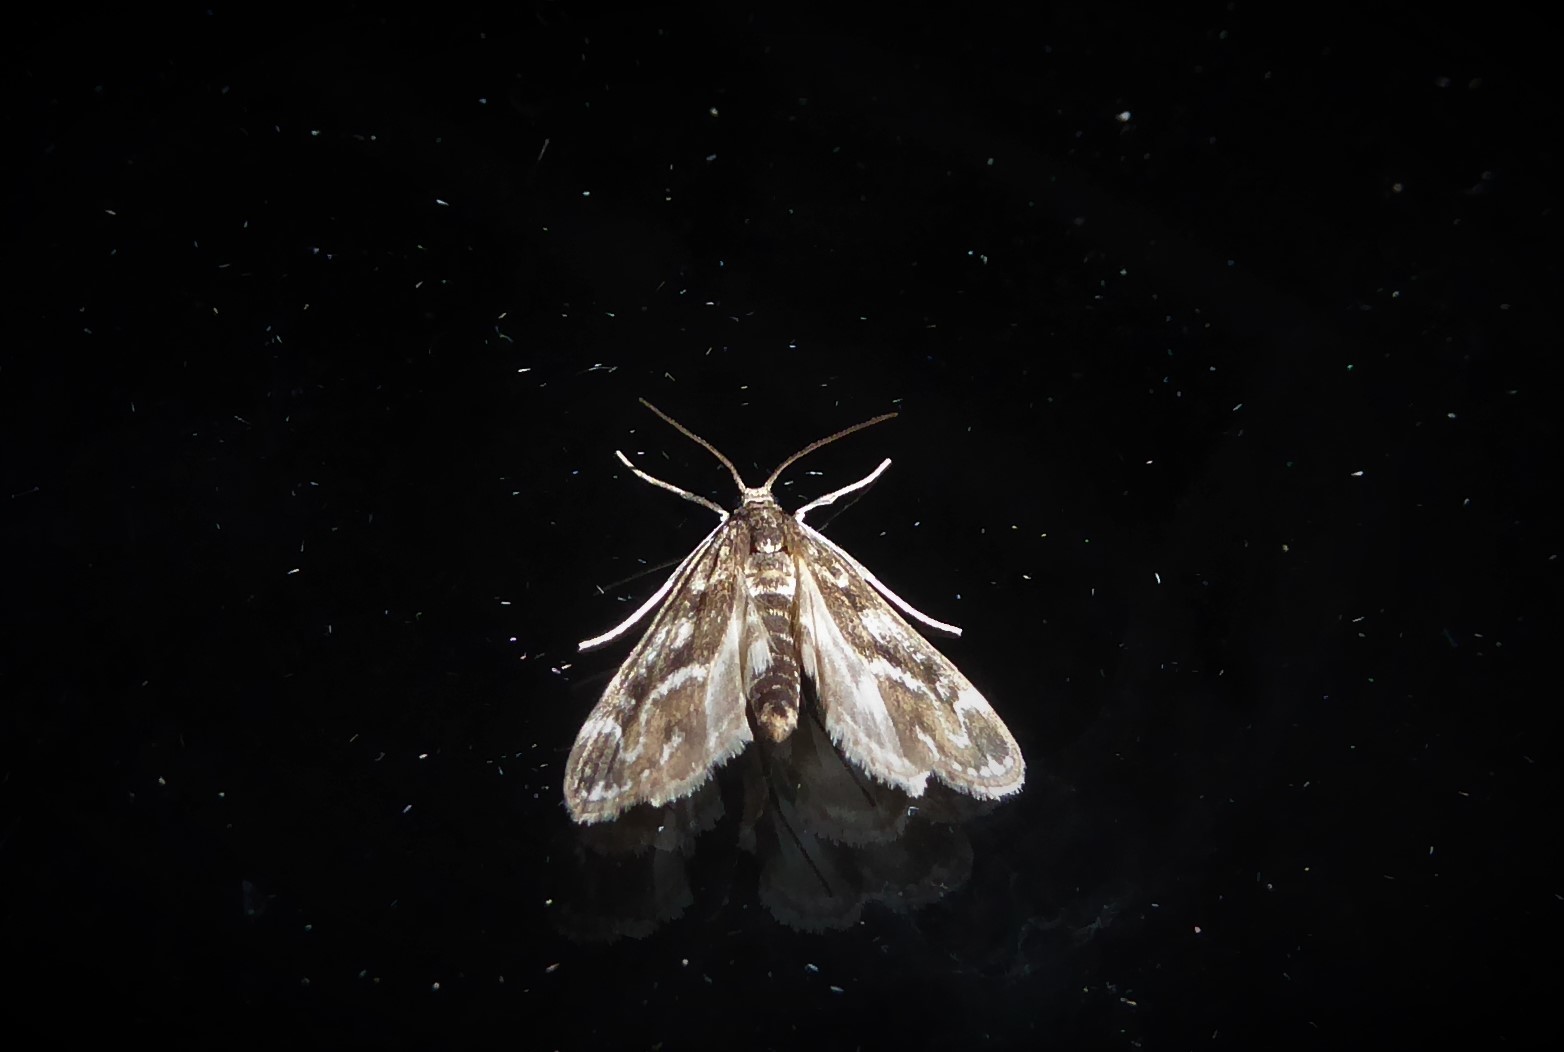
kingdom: Animalia
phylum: Arthropoda
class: Insecta
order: Lepidoptera
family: Crambidae
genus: Hygraula
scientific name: Hygraula nitens
